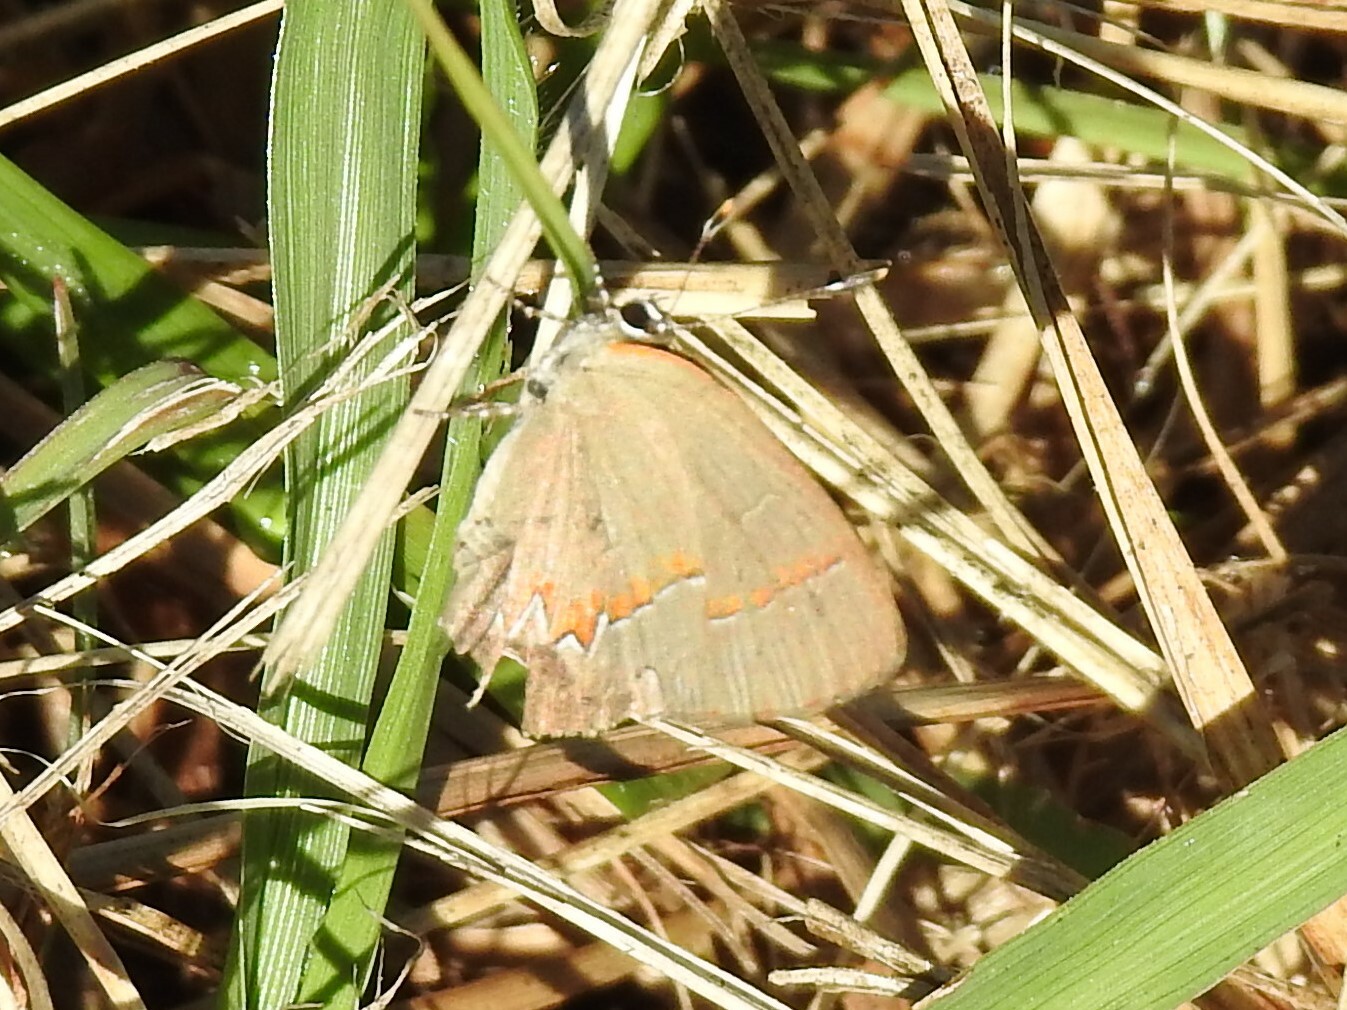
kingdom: Animalia
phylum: Arthropoda
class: Insecta
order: Lepidoptera
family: Lycaenidae
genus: Calycopis
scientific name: Calycopis cecrops
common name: Red-banded hairstreak
